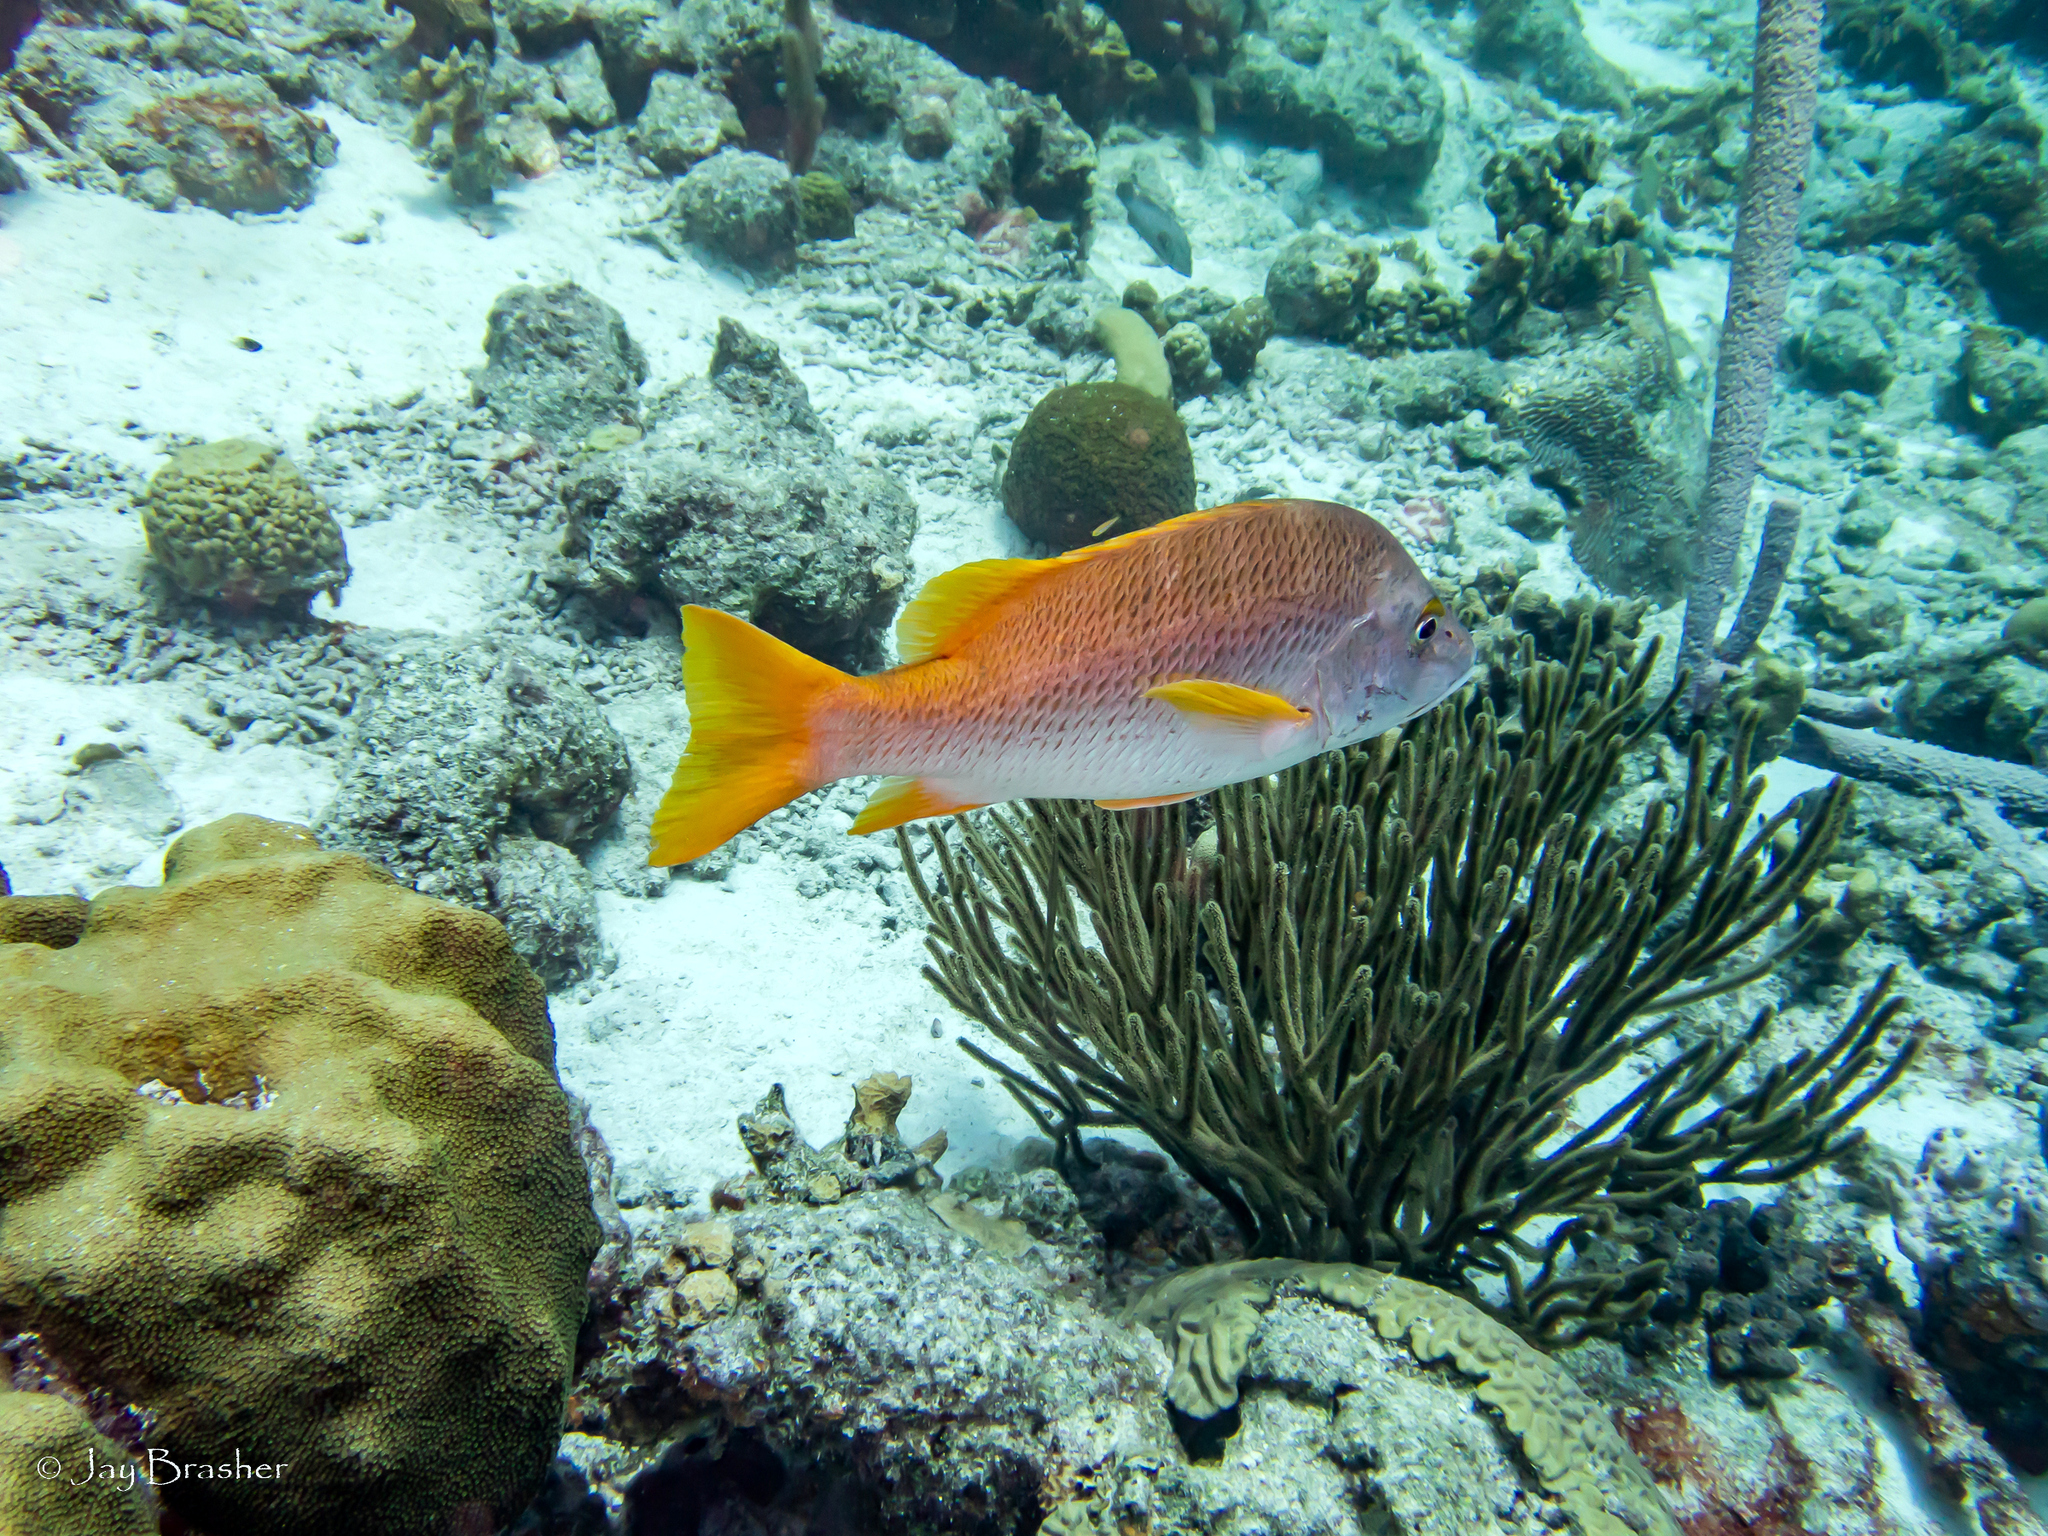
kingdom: Animalia
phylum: Chordata
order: Perciformes
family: Lutjanidae
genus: Lutjanus
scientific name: Lutjanus apodus
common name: Schoolmaster
